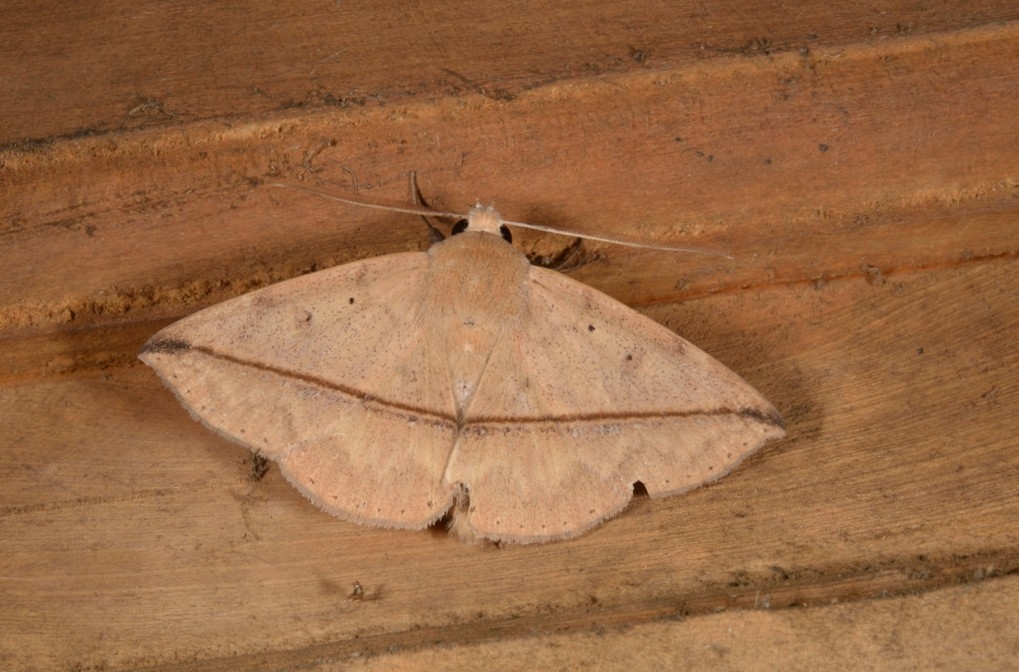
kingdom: Animalia
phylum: Arthropoda
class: Insecta
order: Lepidoptera
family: Erebidae
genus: Ugia
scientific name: Ugia sundana
